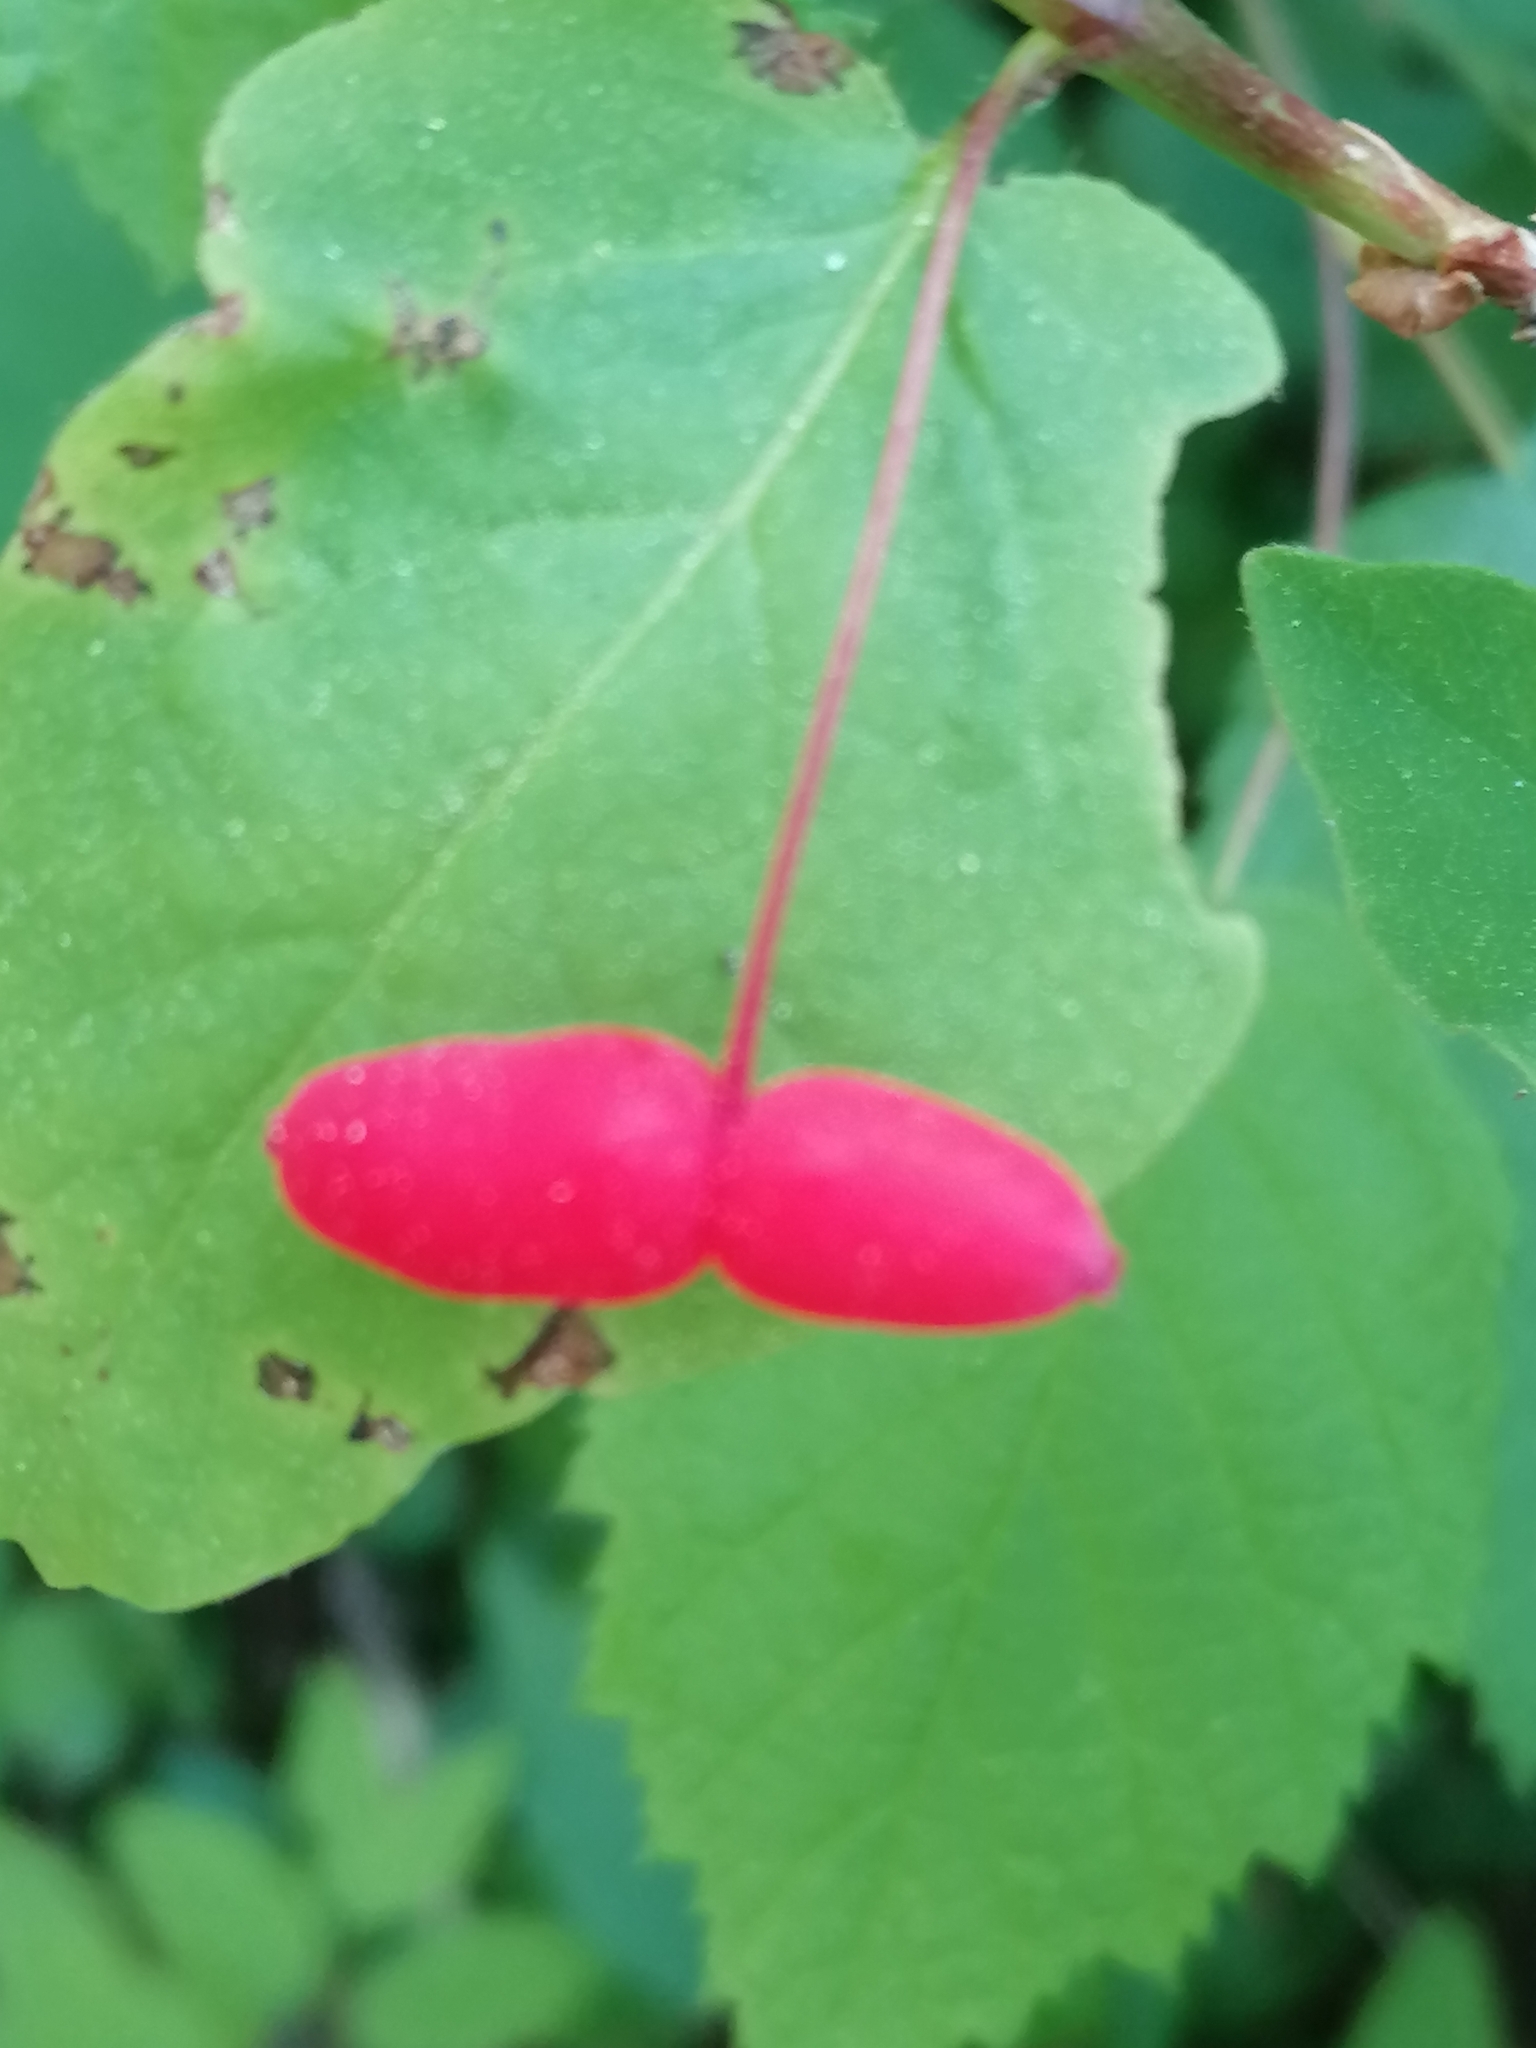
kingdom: Plantae
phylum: Tracheophyta
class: Magnoliopsida
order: Dipsacales
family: Caprifoliaceae
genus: Lonicera
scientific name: Lonicera canadensis
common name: American fly-honeysuckle
